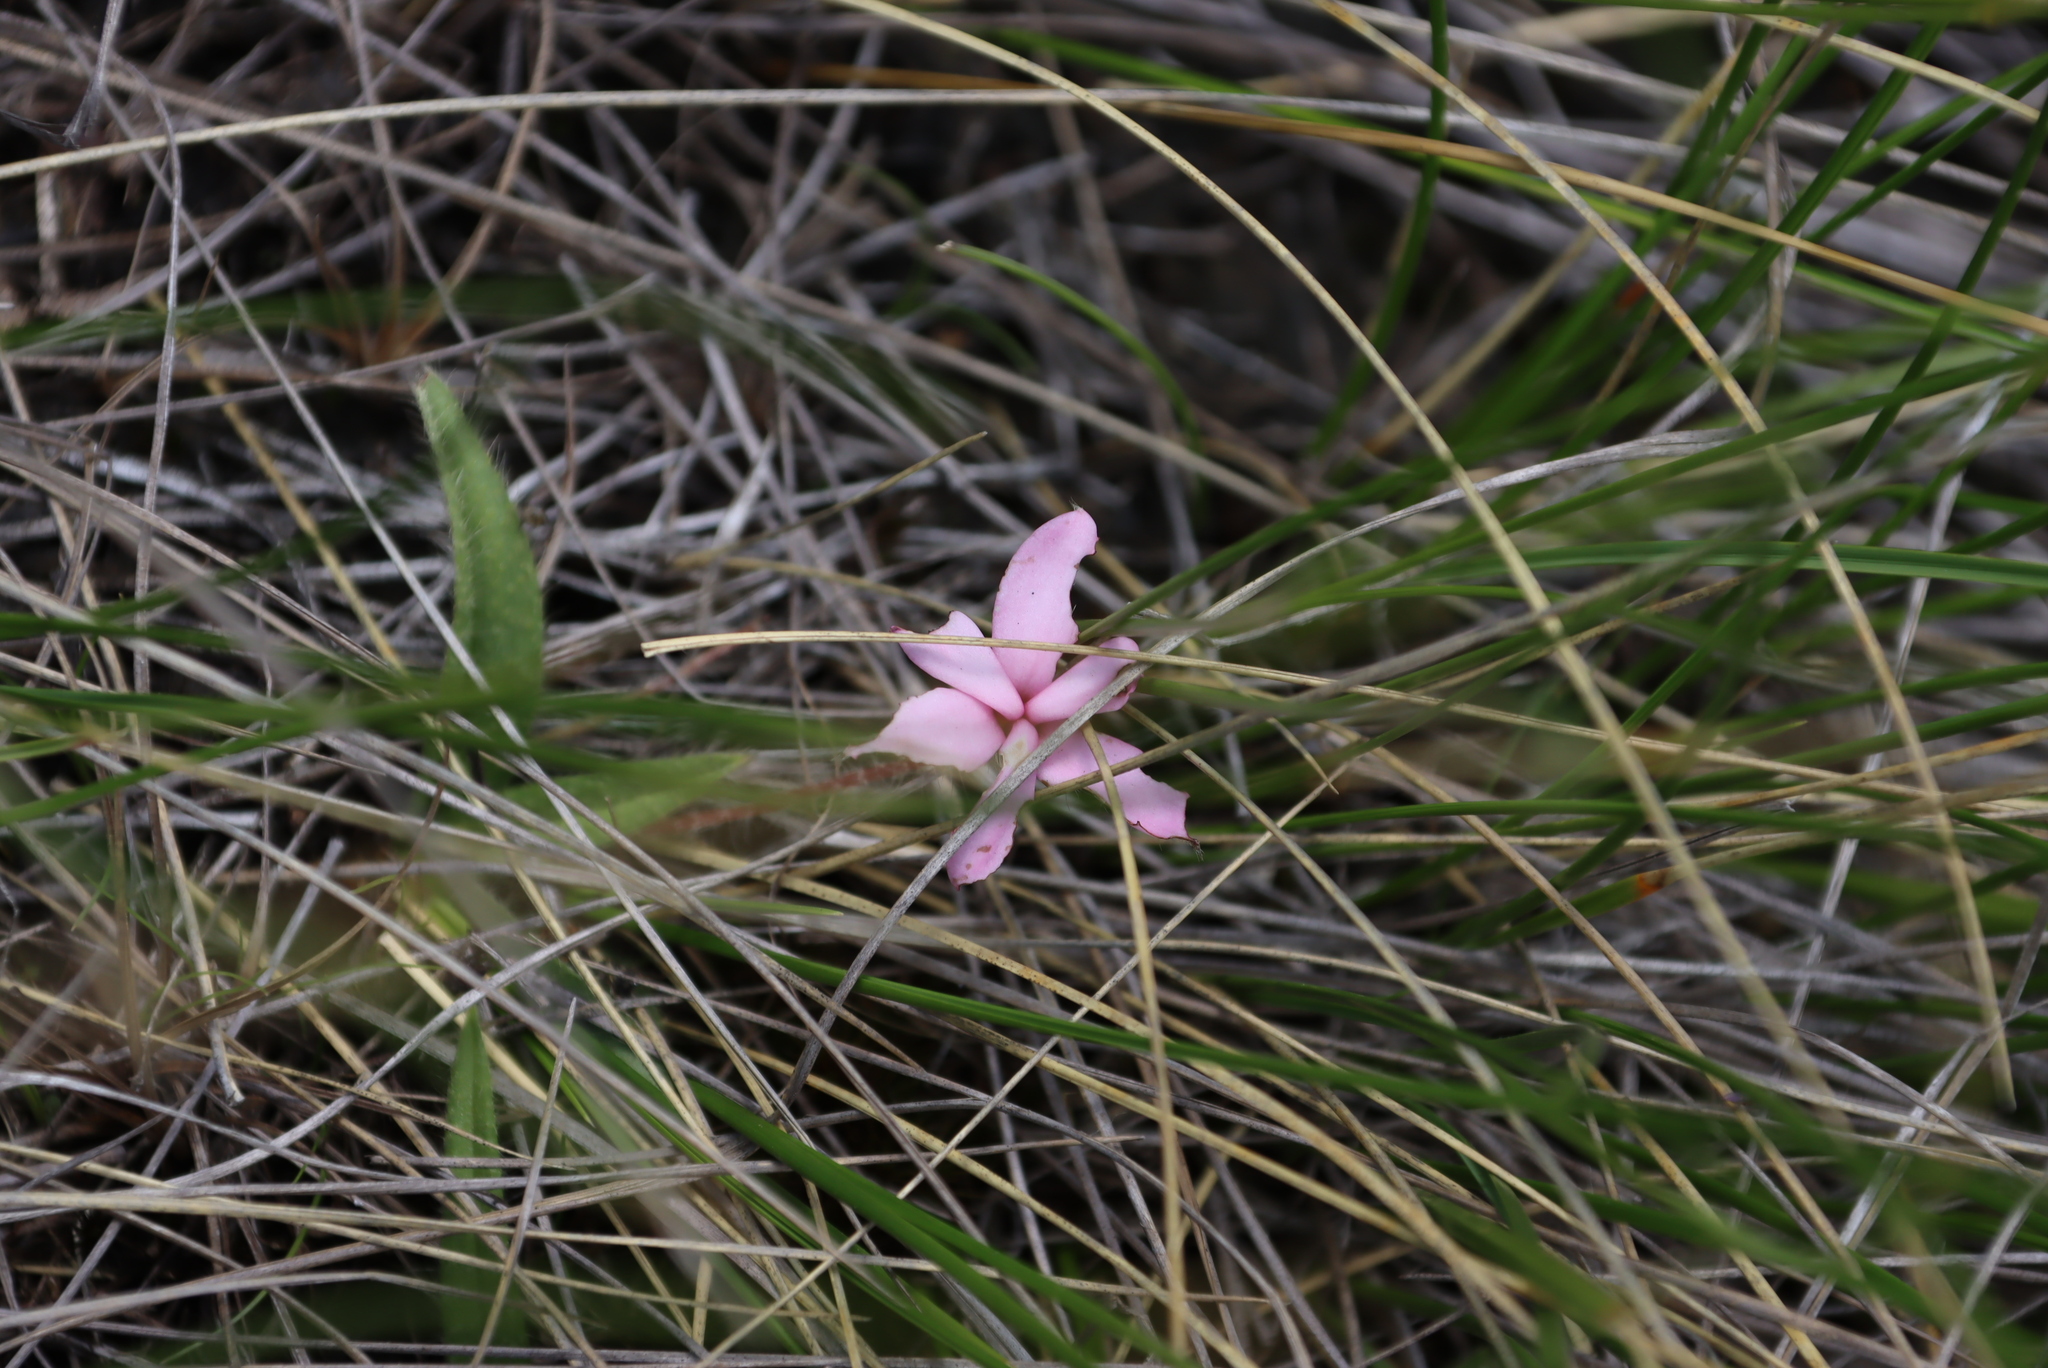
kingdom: Plantae
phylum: Tracheophyta
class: Liliopsida
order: Asparagales
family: Hypoxidaceae
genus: Hypoxis
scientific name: Hypoxis baurii
